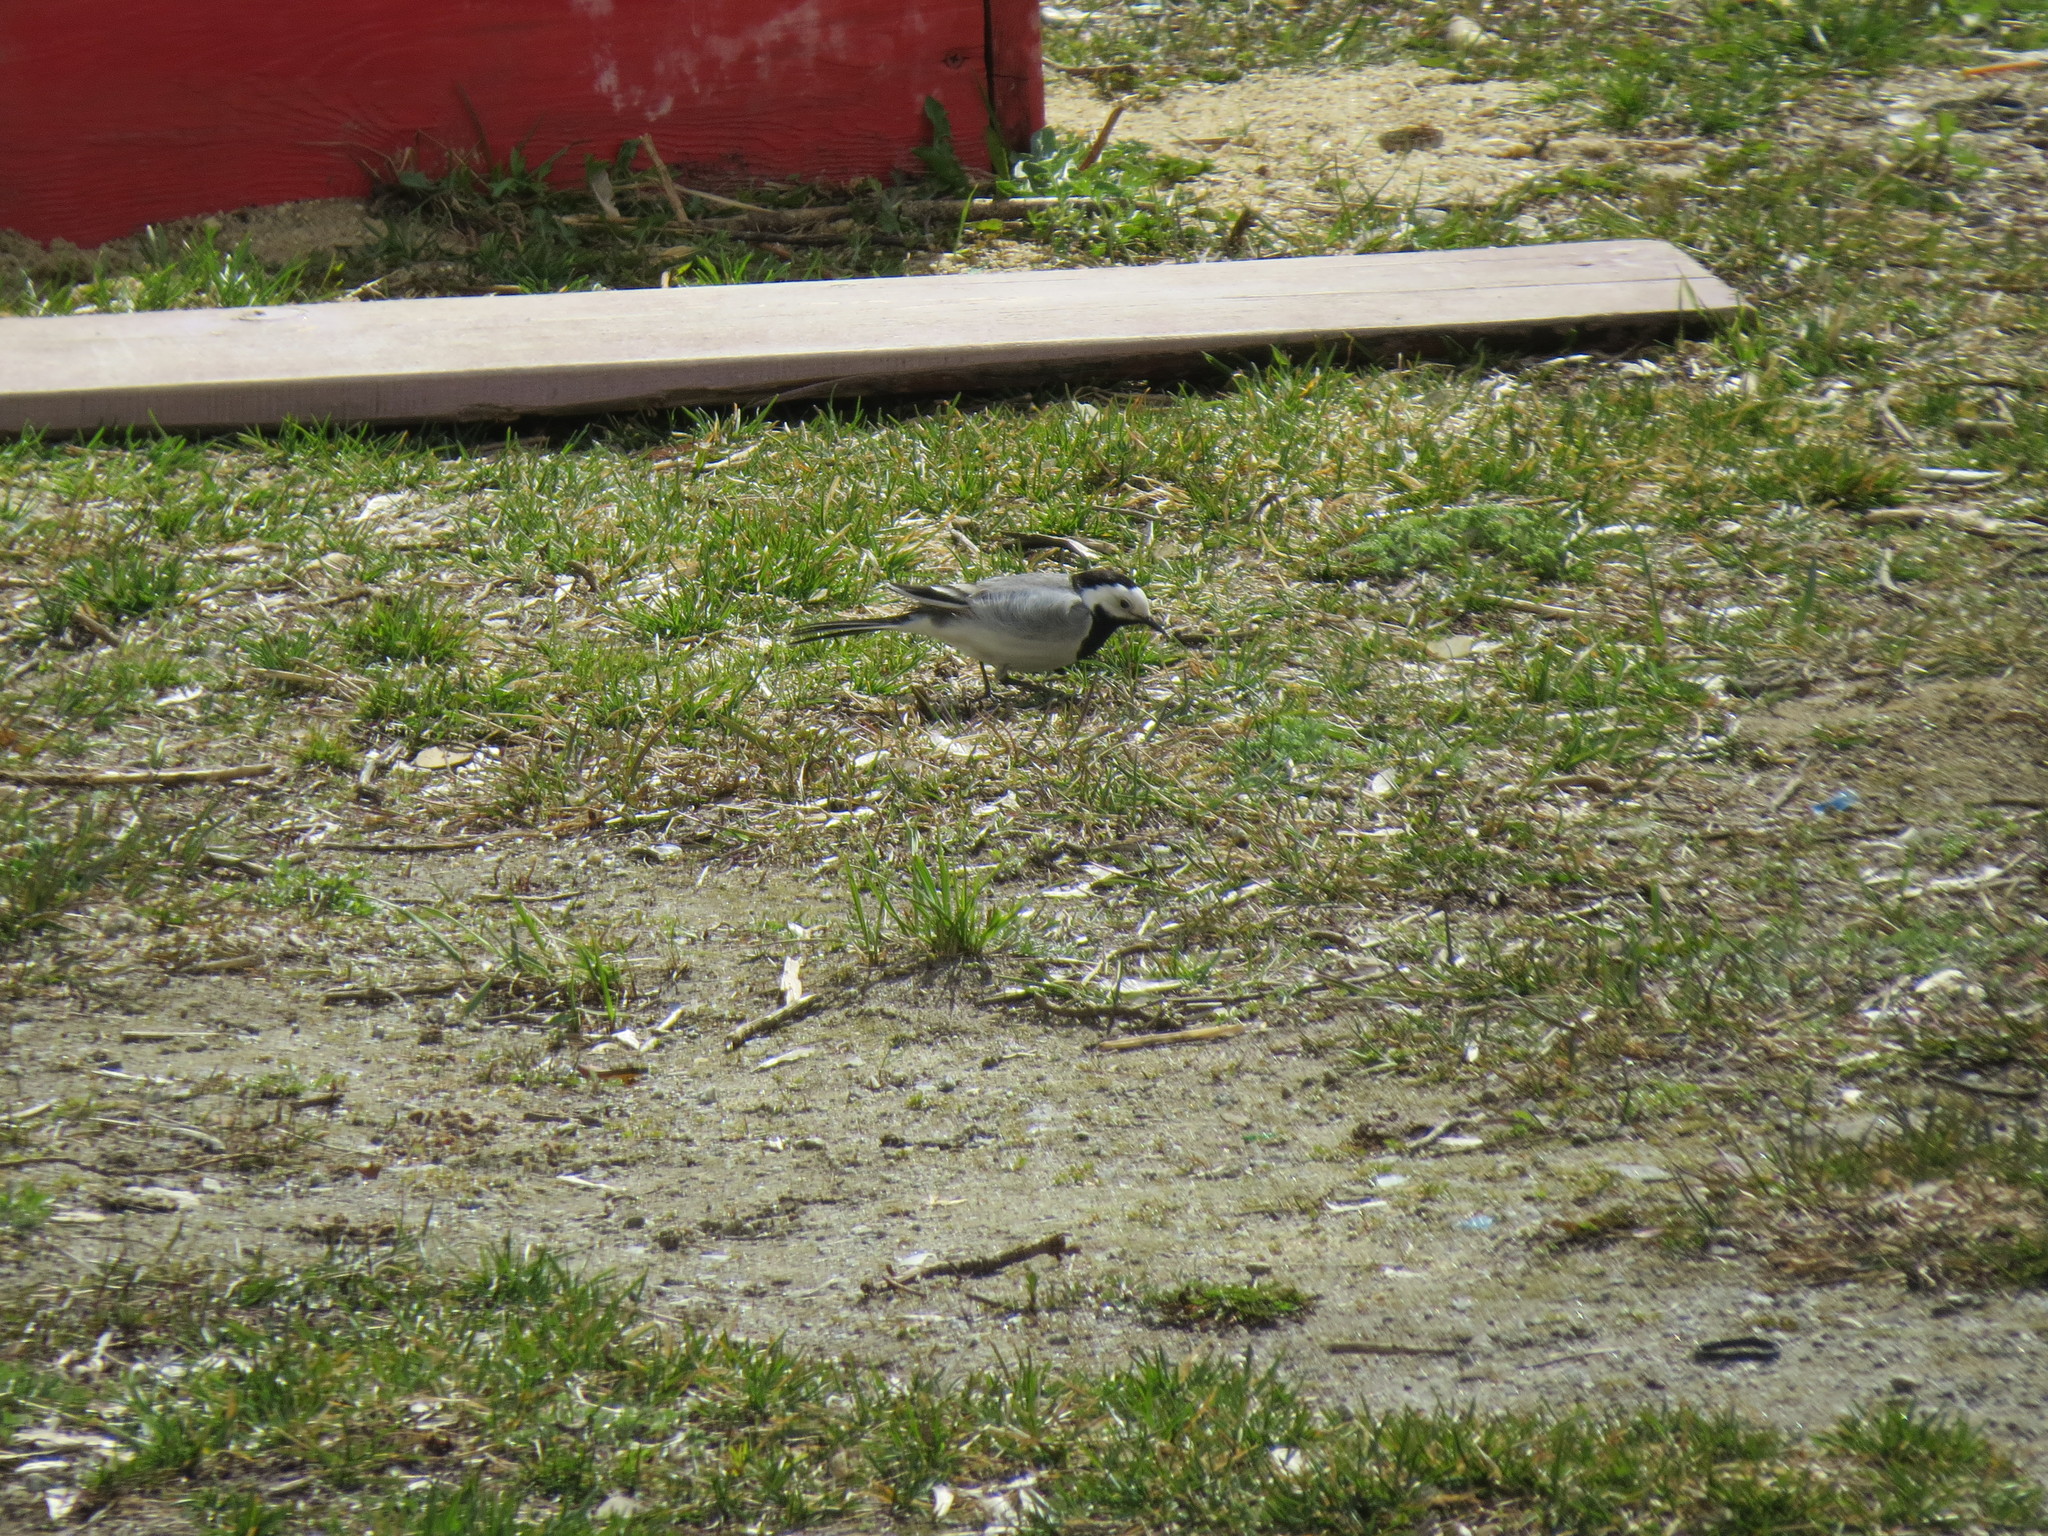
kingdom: Animalia
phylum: Chordata
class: Aves
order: Passeriformes
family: Motacillidae
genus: Motacilla
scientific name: Motacilla alba
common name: White wagtail
